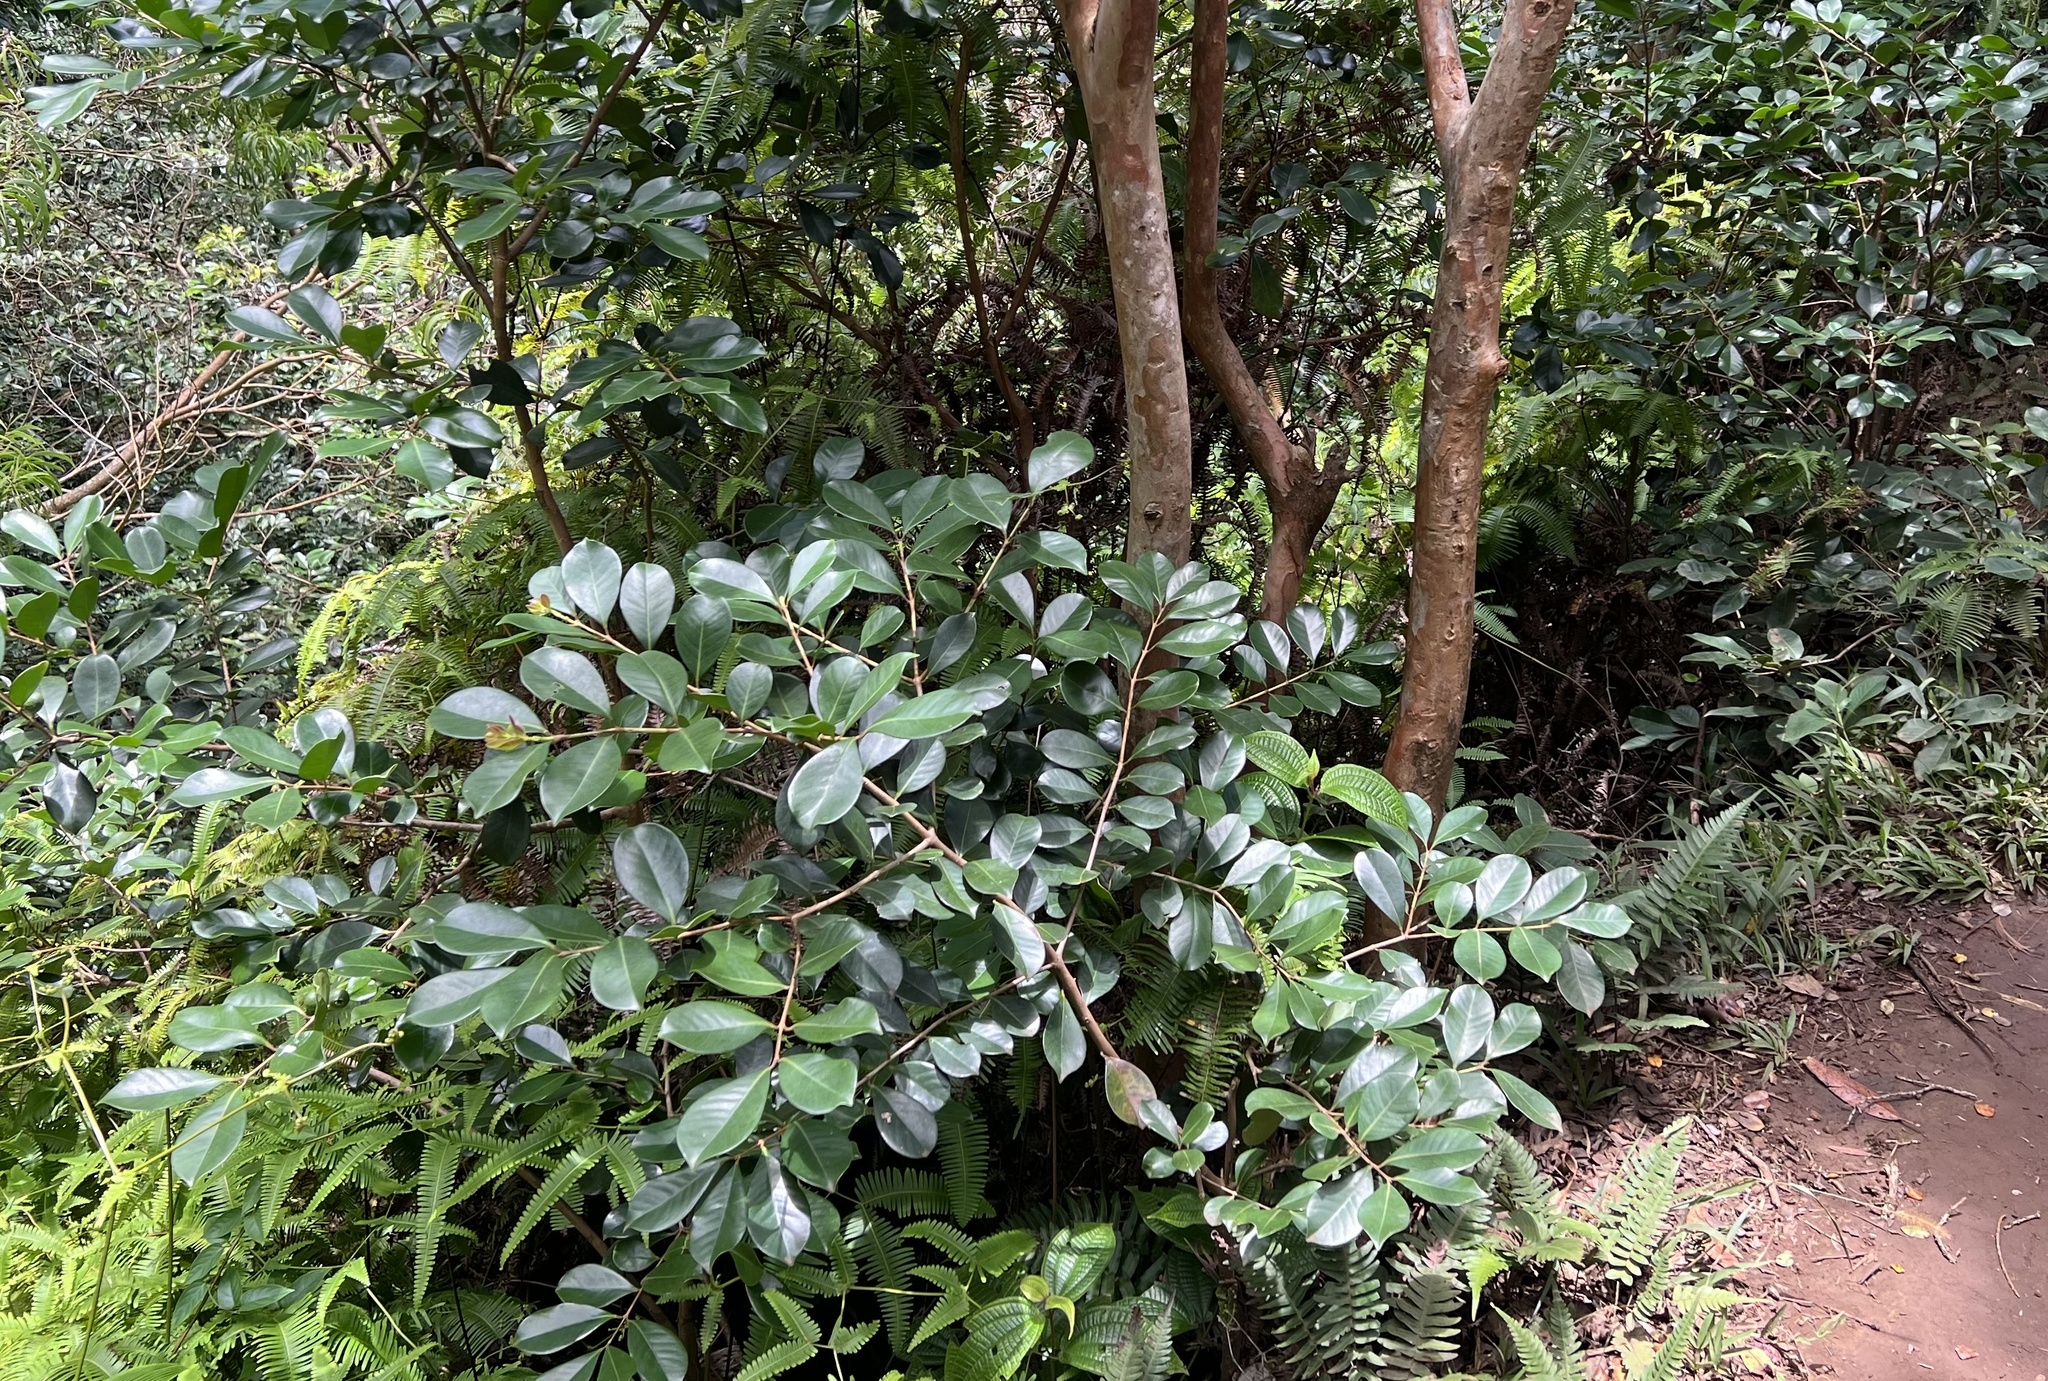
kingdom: Plantae
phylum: Tracheophyta
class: Magnoliopsida
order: Myrtales
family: Myrtaceae
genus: Psidium
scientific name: Psidium cattleianum
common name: Strawberry guava
